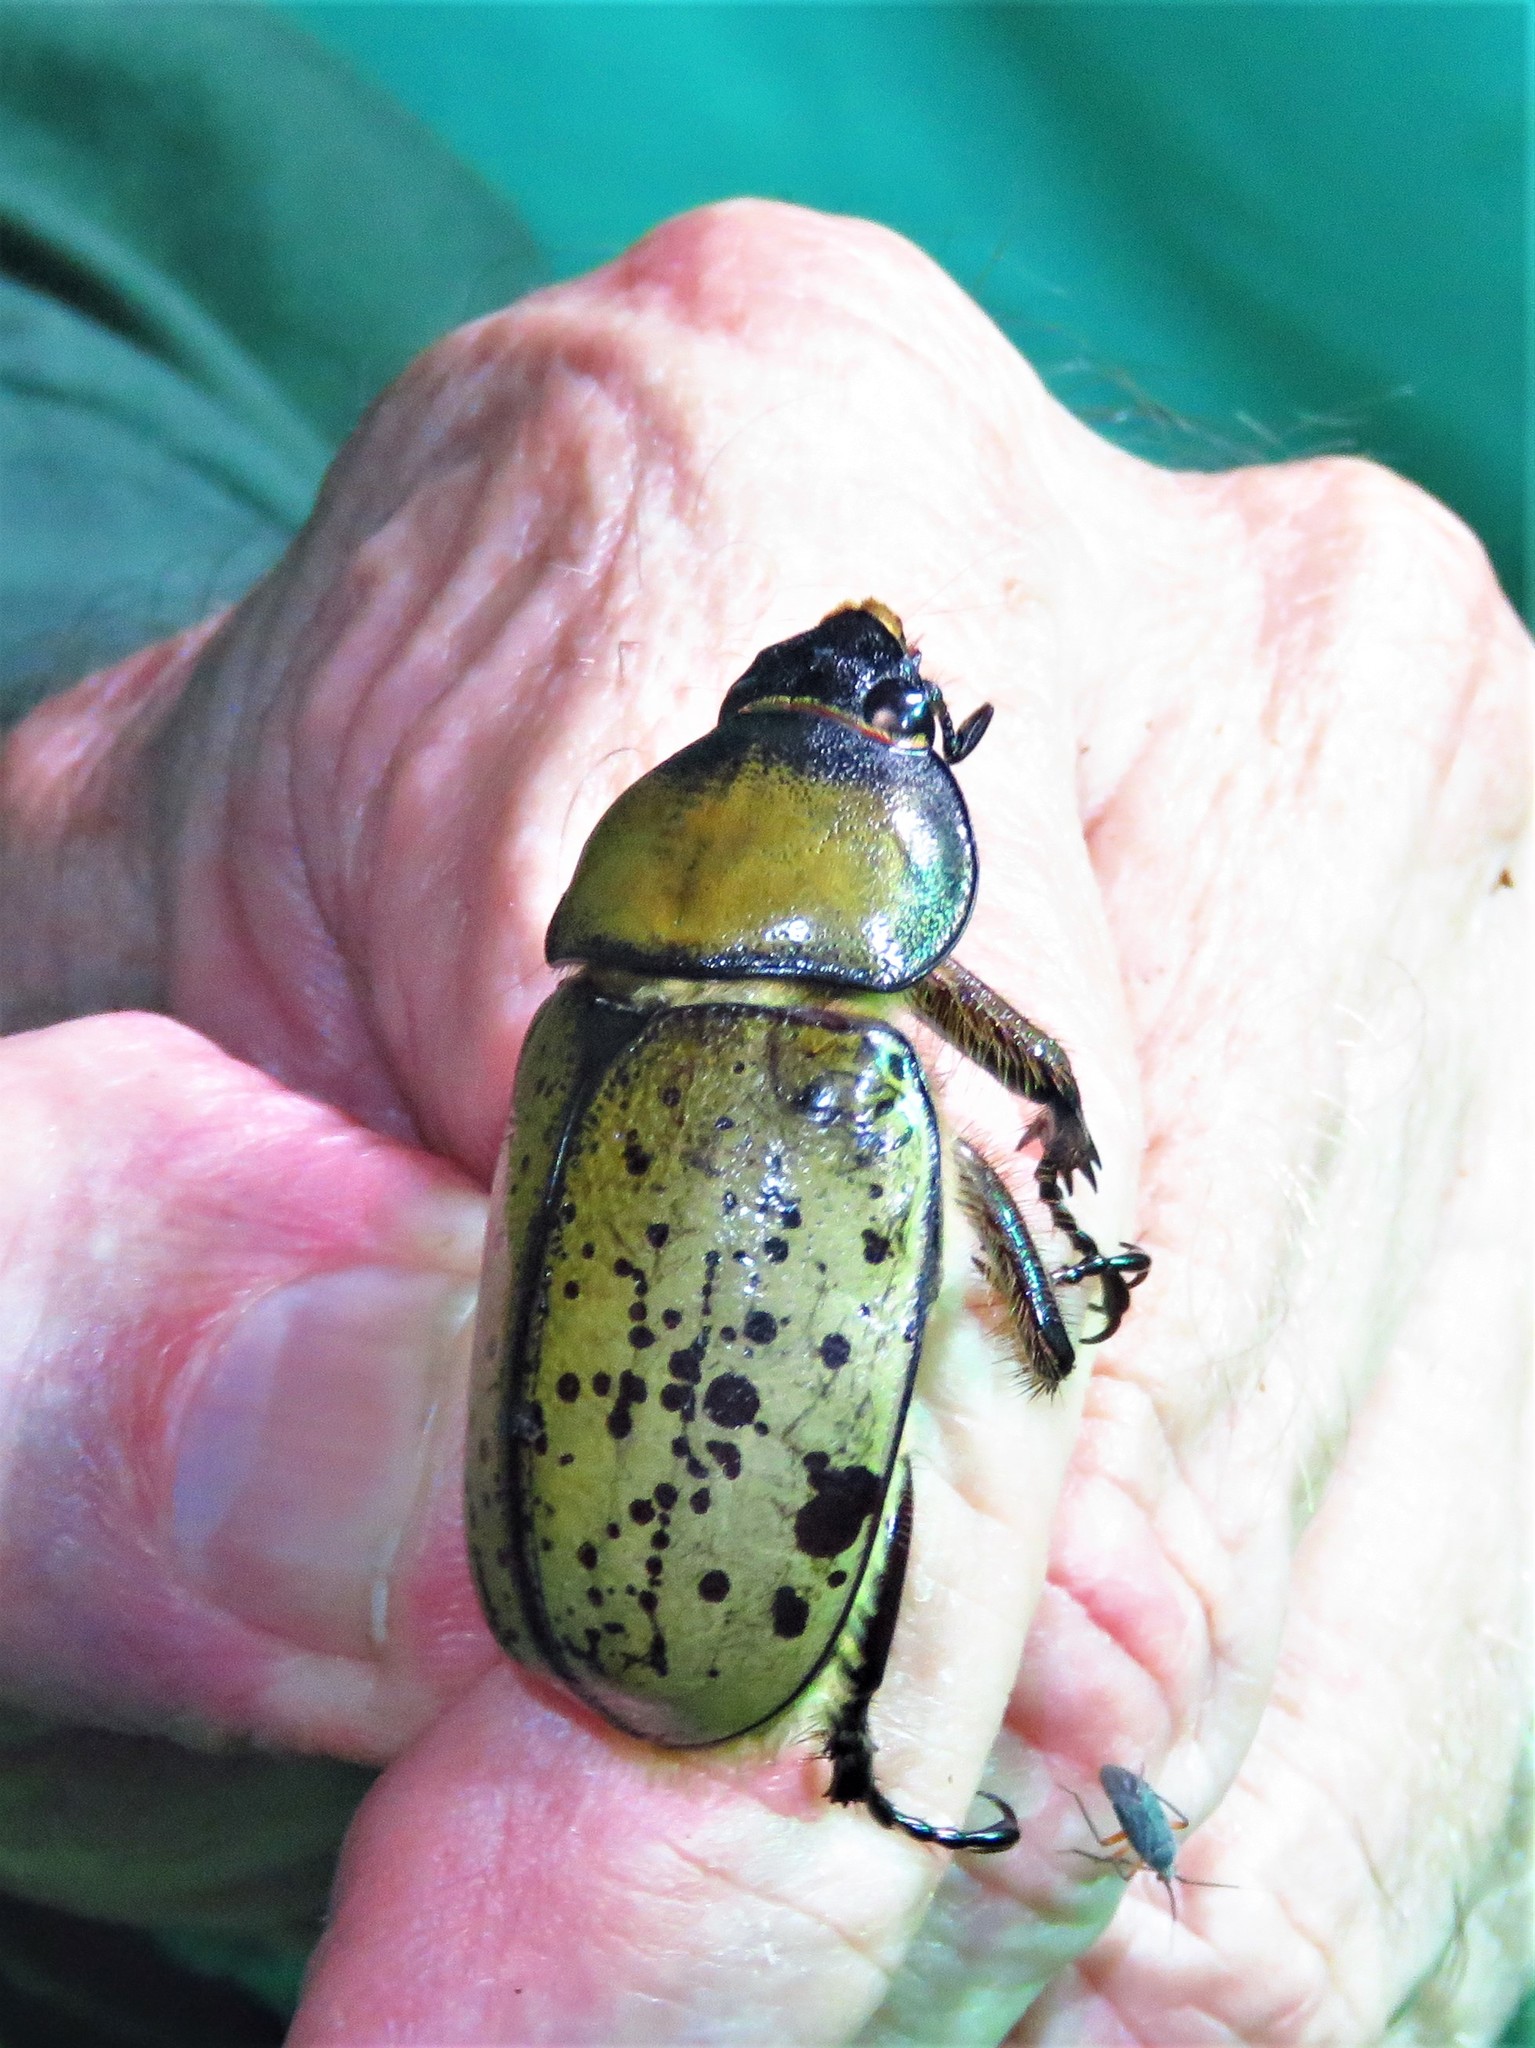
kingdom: Animalia
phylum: Arthropoda
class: Insecta
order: Coleoptera
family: Scarabaeidae
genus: Dynastes
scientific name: Dynastes tityus
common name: Eastern hercules beetle
